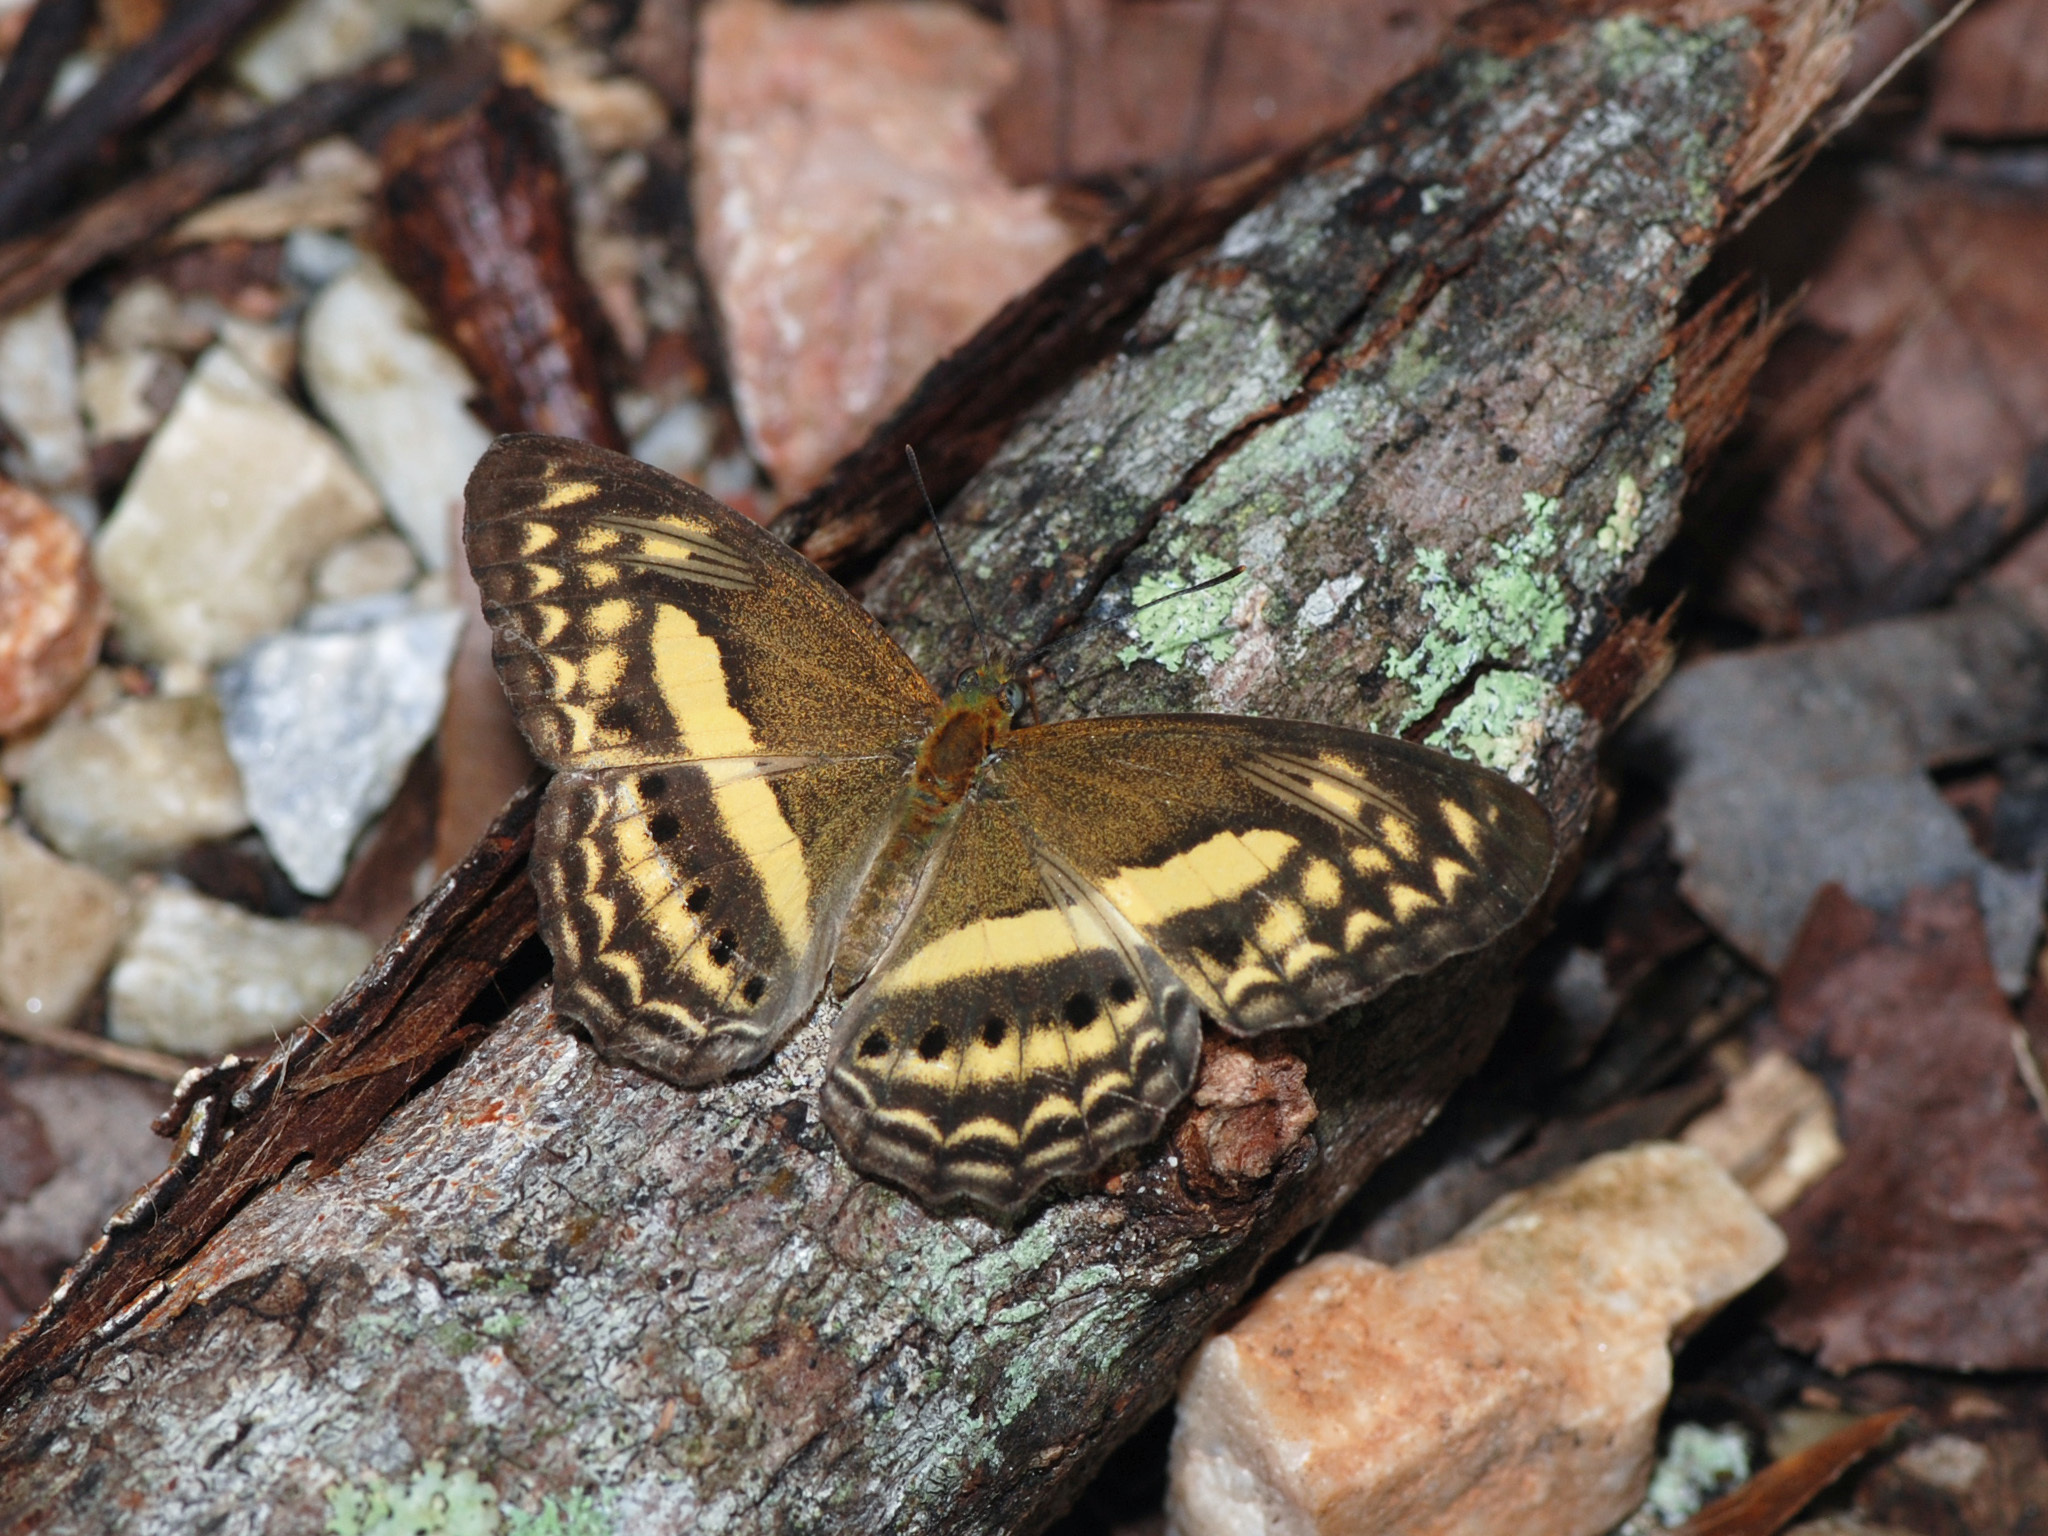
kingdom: Animalia
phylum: Arthropoda
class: Insecta
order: Lepidoptera
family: Nymphalidae
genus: Algia
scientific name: Algia fasciata
